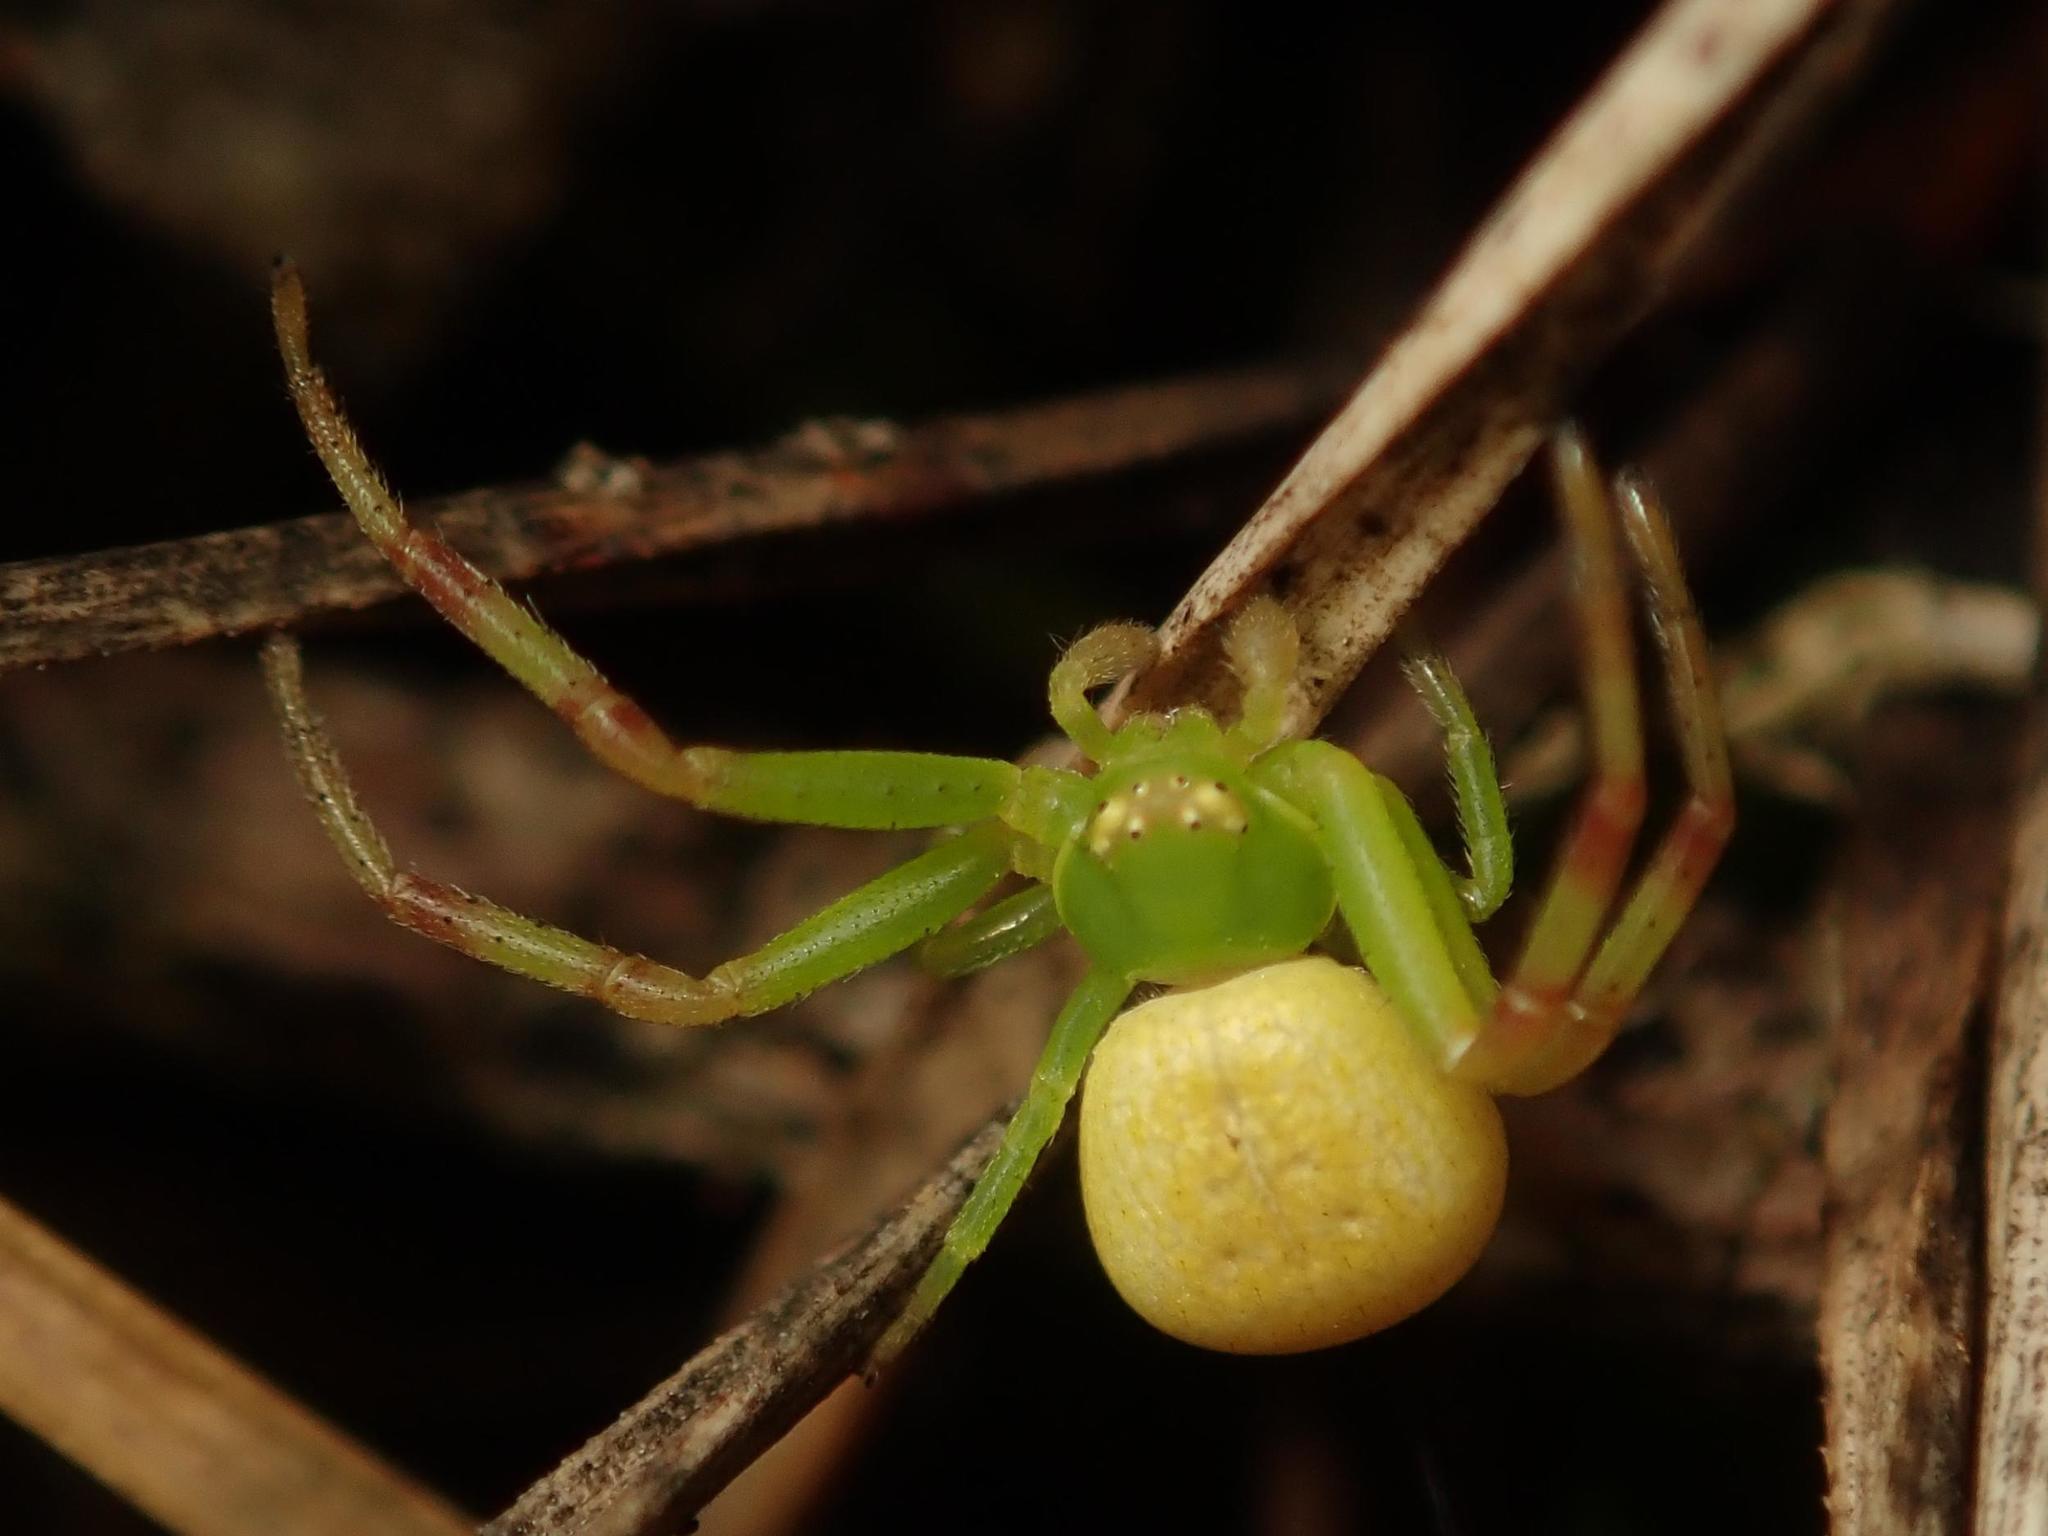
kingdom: Animalia
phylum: Arthropoda
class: Arachnida
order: Araneae
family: Thomisidae
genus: Ebrechtella
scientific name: Ebrechtella tricuspidata
